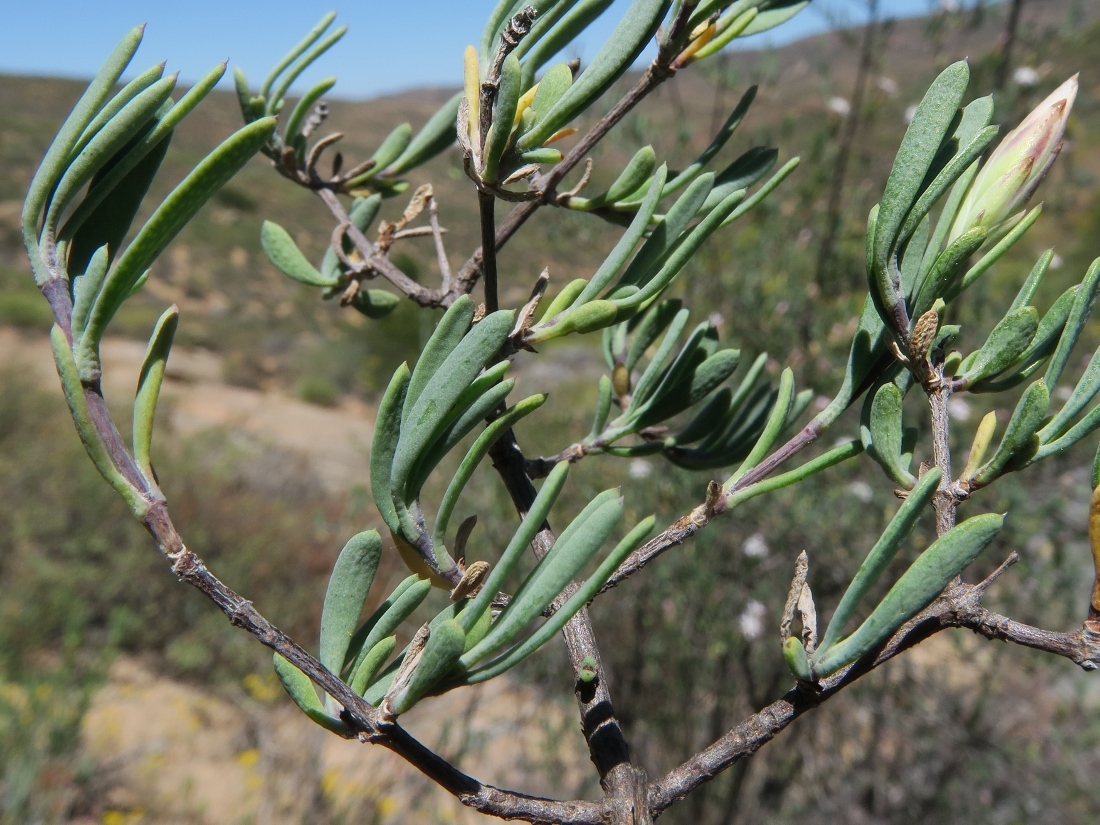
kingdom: Plantae
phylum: Tracheophyta
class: Magnoliopsida
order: Asterales
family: Asteraceae
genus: Pteronia
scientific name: Pteronia leptospermoides
